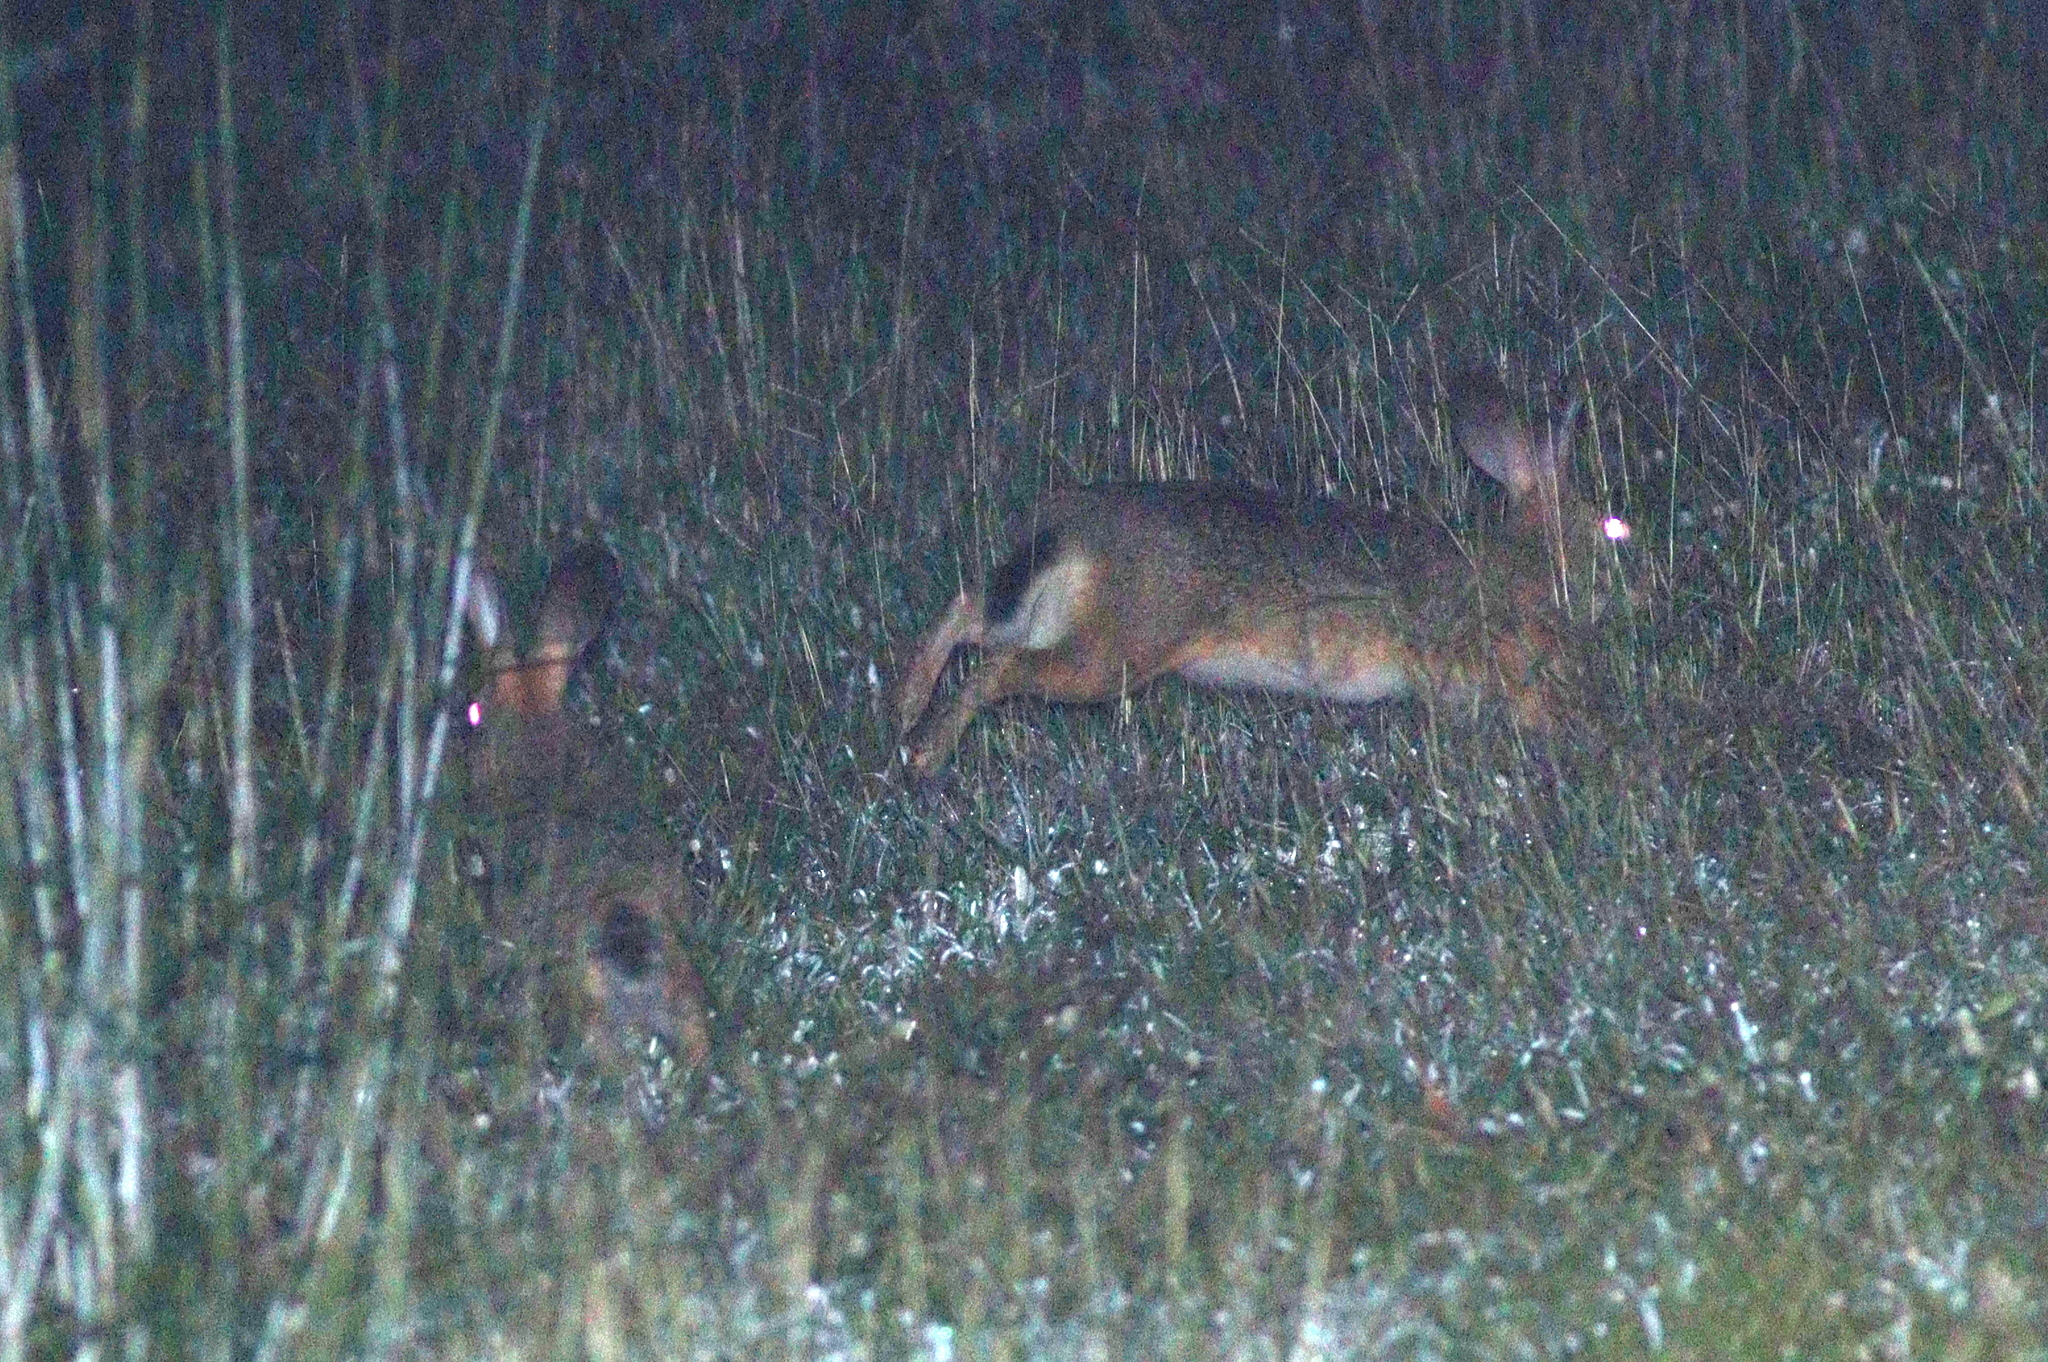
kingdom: Animalia
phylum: Chordata
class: Mammalia
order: Lagomorpha
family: Leporidae
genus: Lepus
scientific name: Lepus peguensis
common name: Burmese hare
